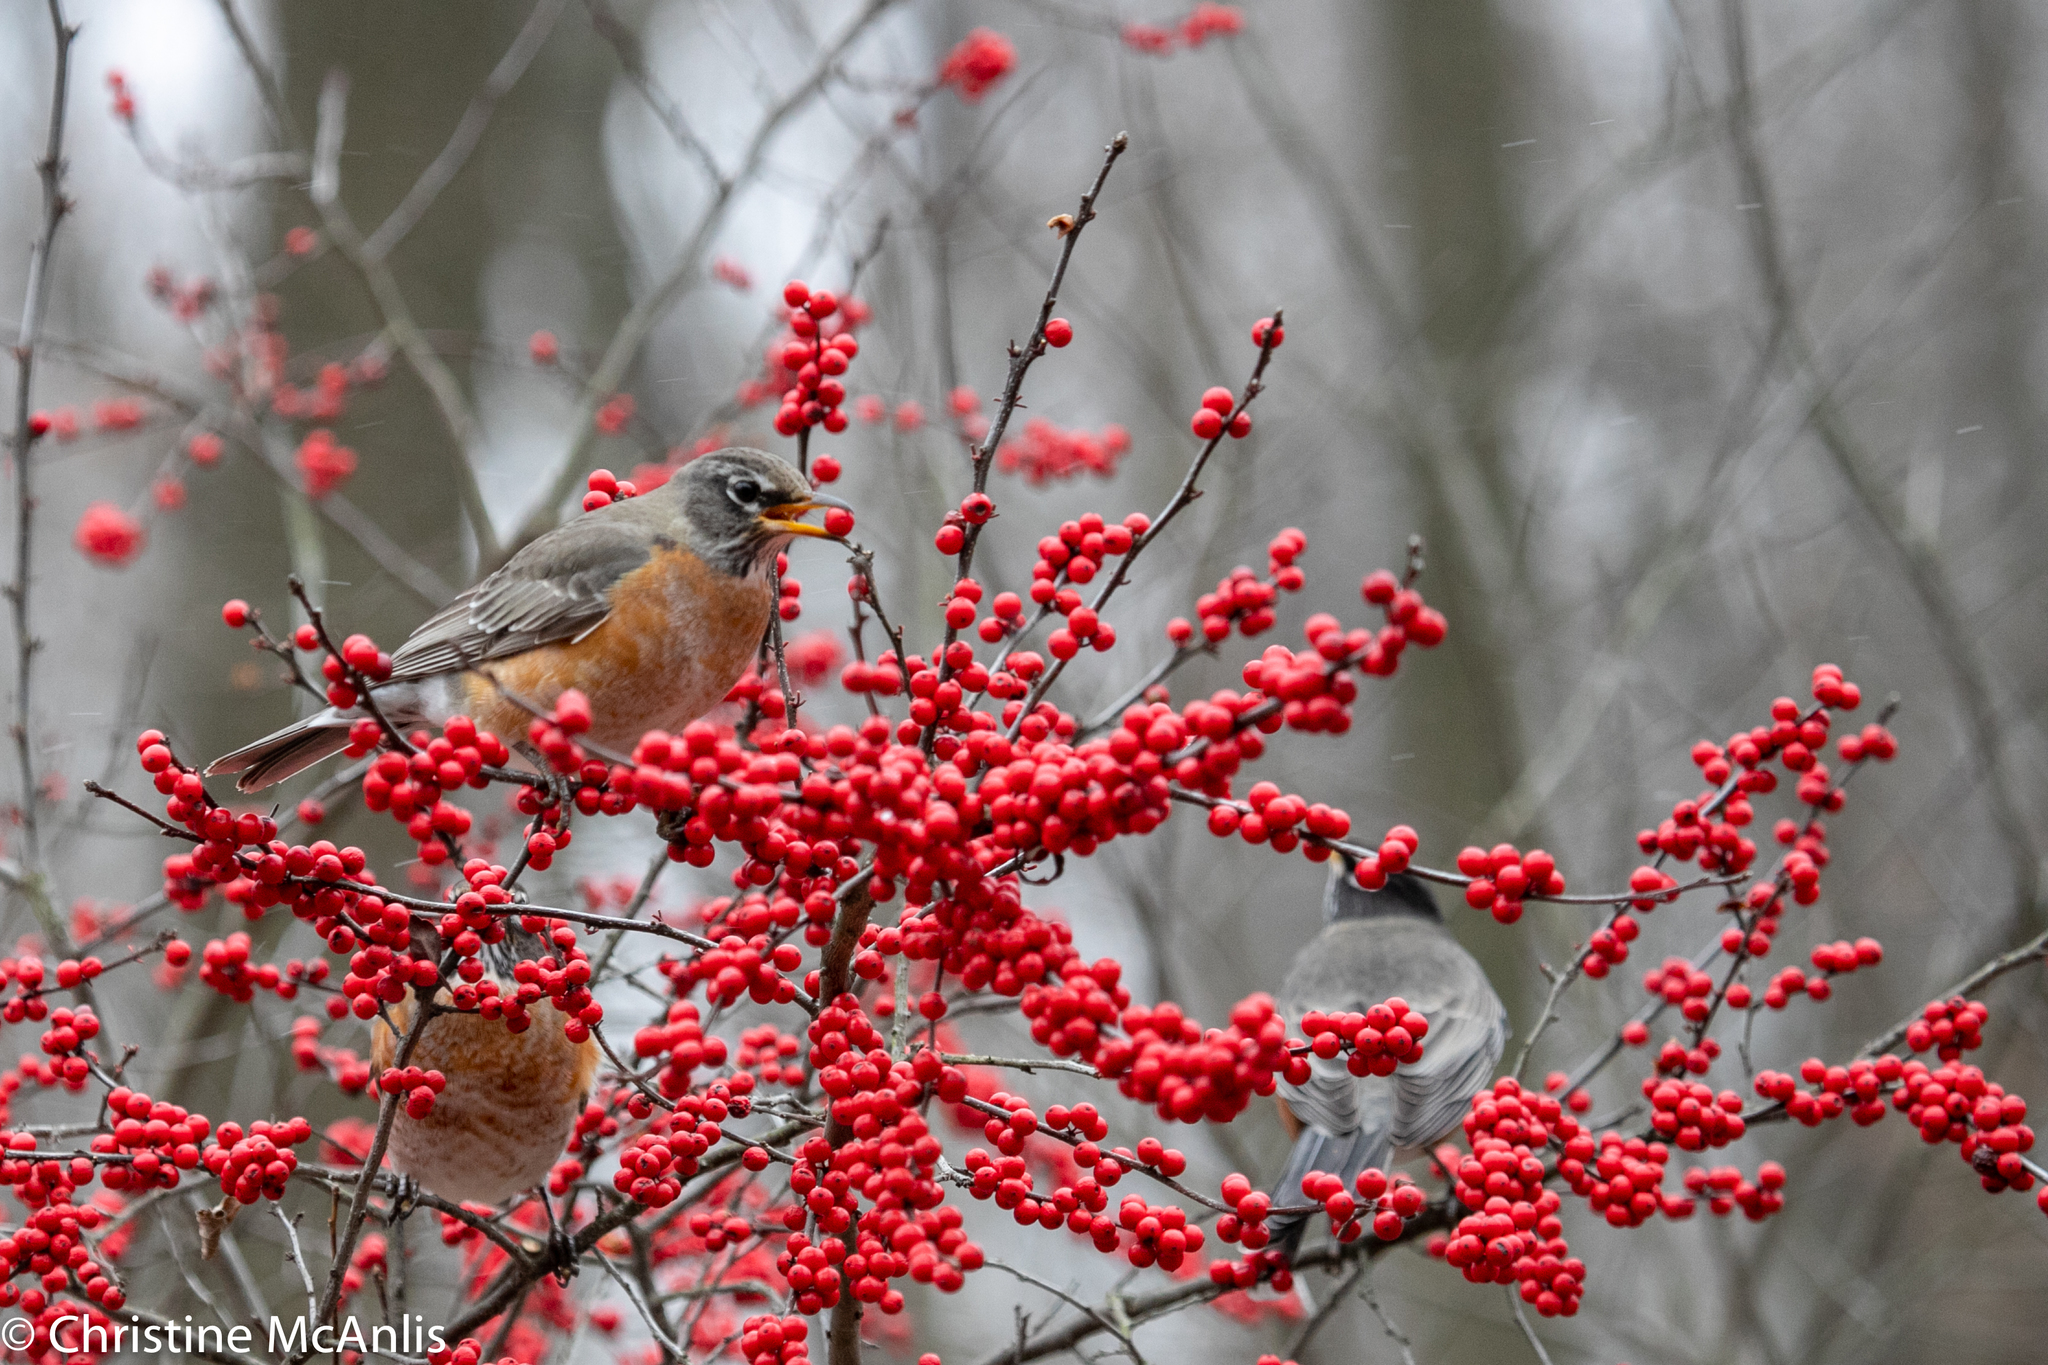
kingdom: Animalia
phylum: Chordata
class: Aves
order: Passeriformes
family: Turdidae
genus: Turdus
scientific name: Turdus migratorius
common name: American robin
